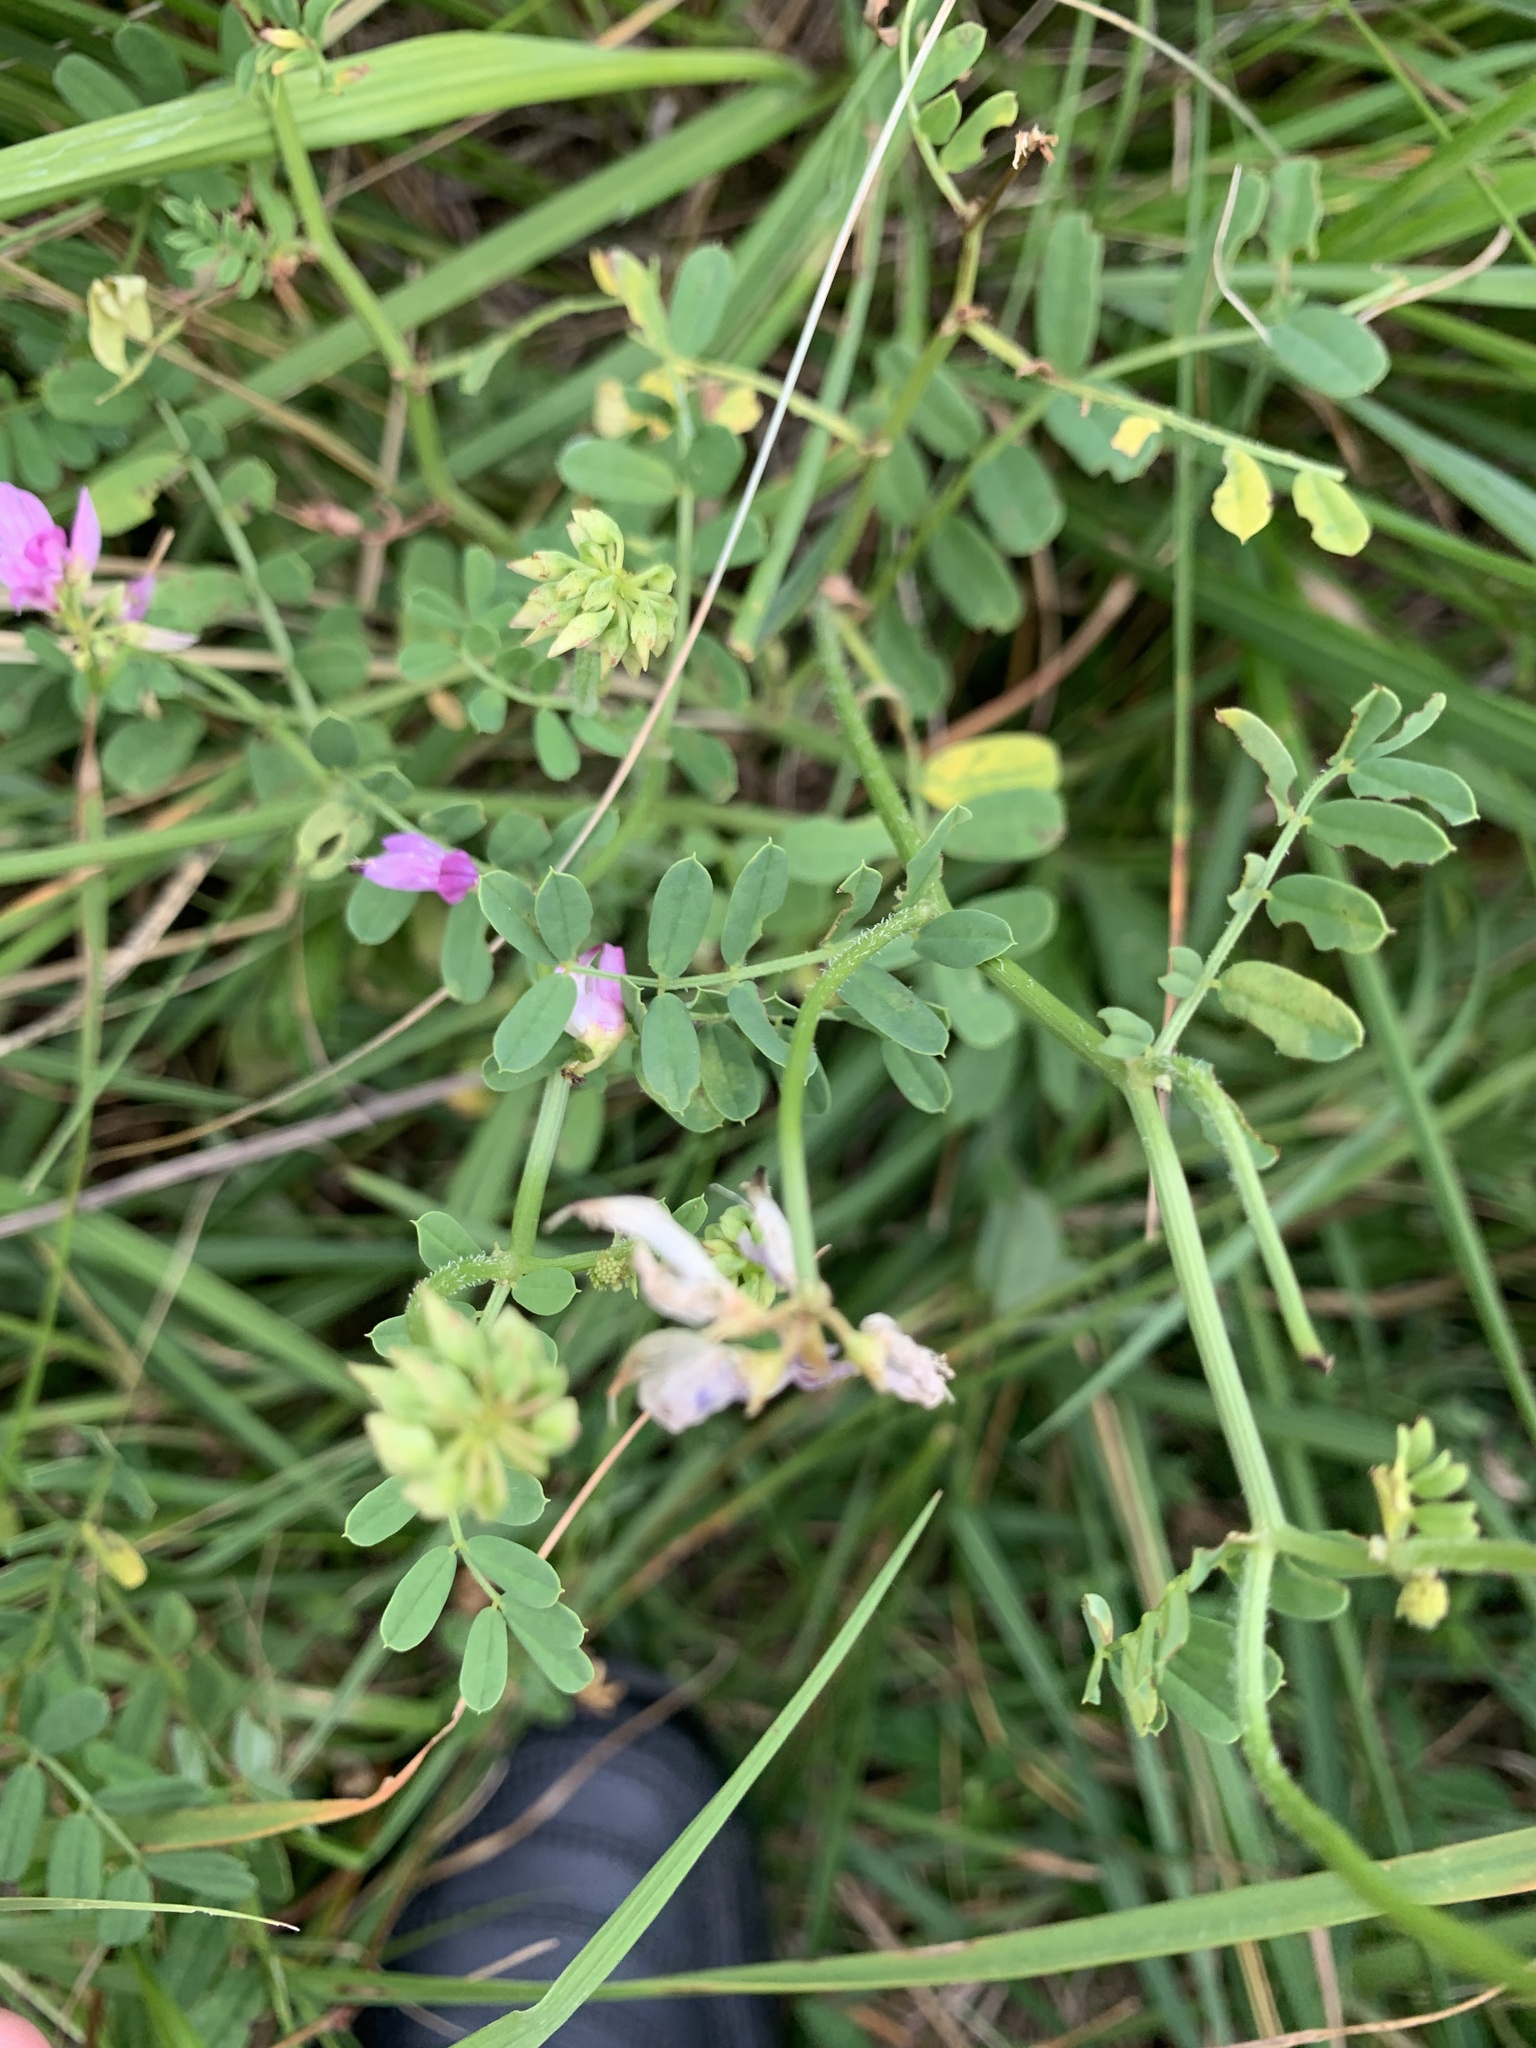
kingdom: Plantae
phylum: Tracheophyta
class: Magnoliopsida
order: Fabales
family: Fabaceae
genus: Coronilla
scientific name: Coronilla varia
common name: Crownvetch
